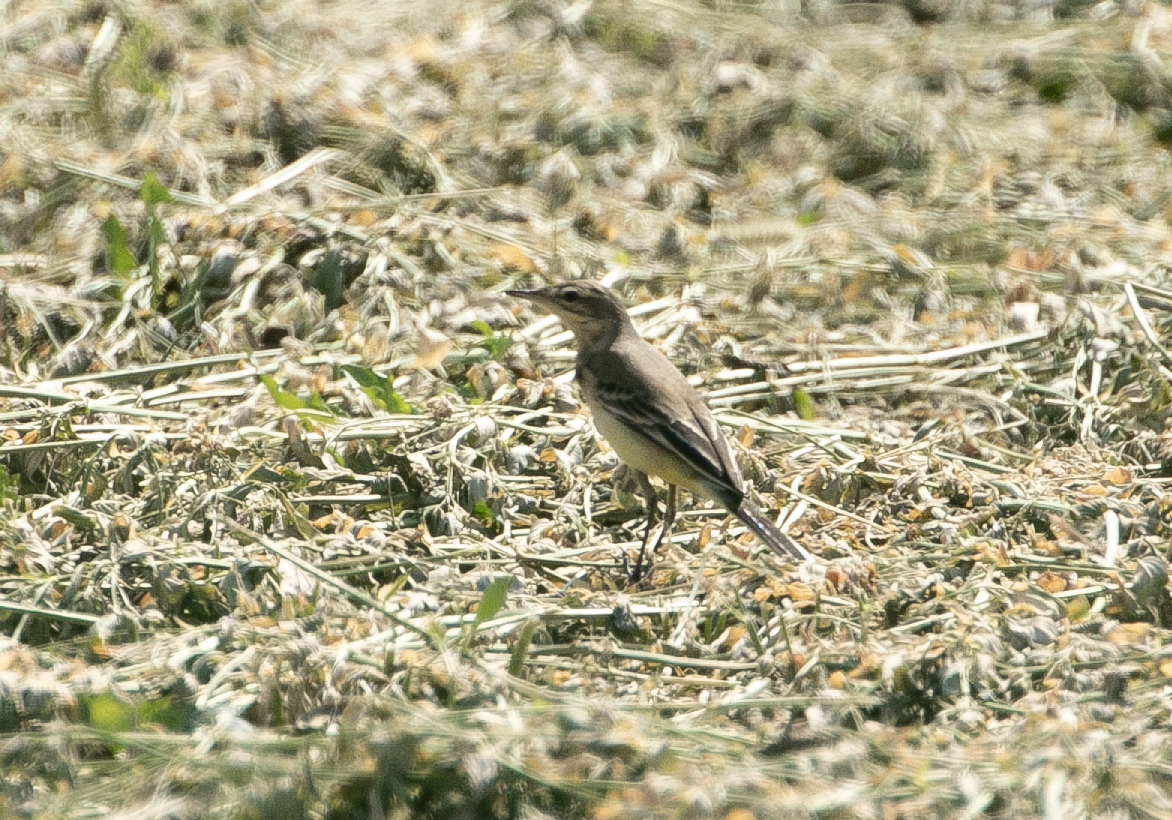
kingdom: Animalia
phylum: Chordata
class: Aves
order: Passeriformes
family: Motacillidae
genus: Motacilla
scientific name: Motacilla flava
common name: Western yellow wagtail
